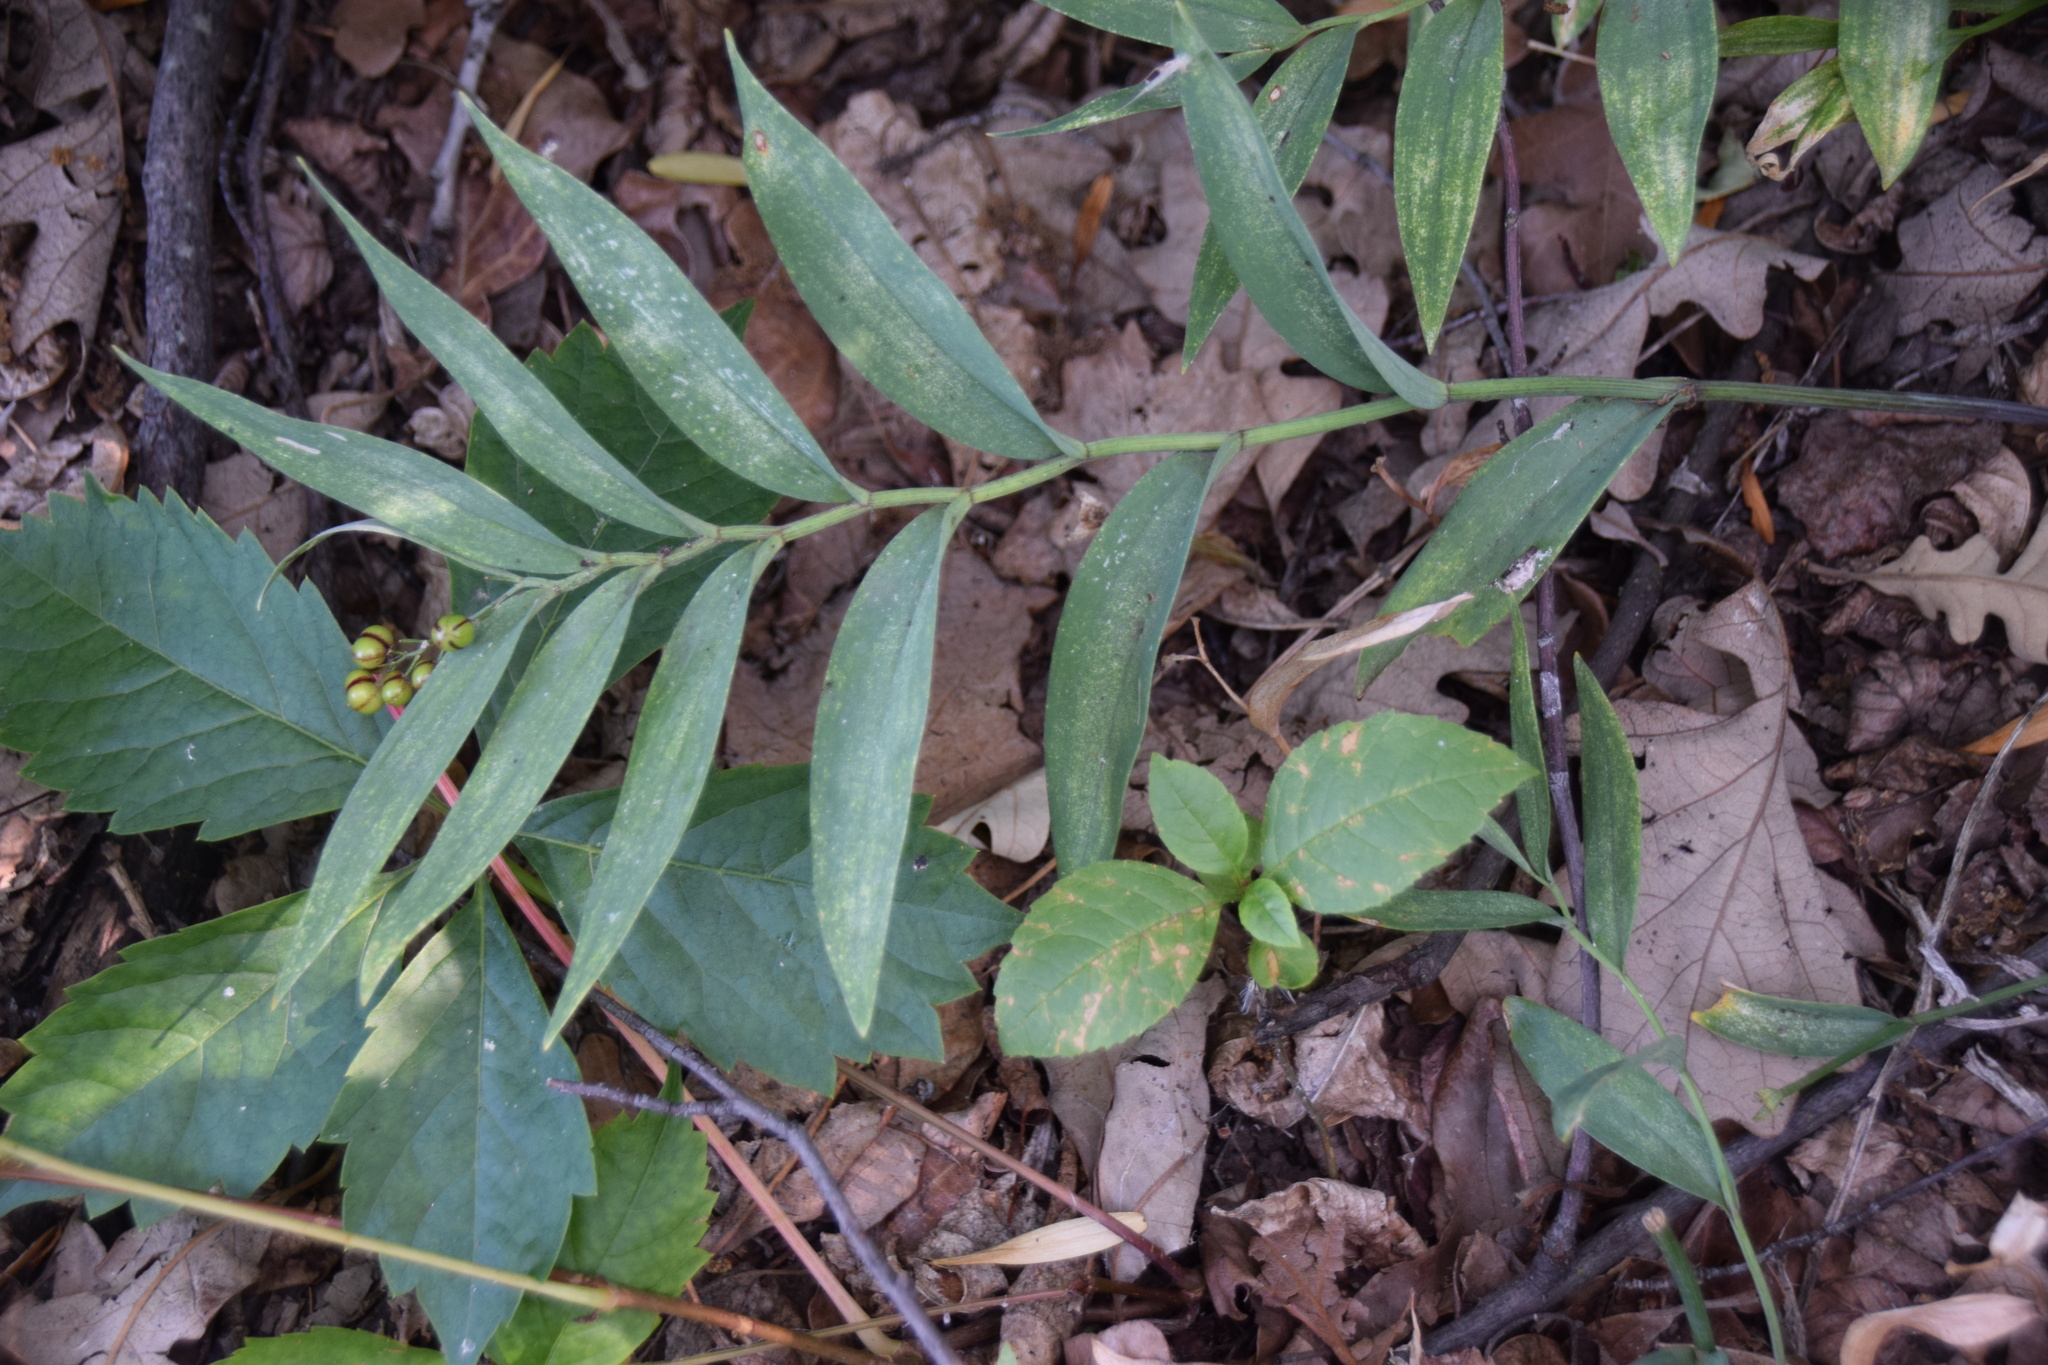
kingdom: Plantae
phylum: Tracheophyta
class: Liliopsida
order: Asparagales
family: Asparagaceae
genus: Maianthemum
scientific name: Maianthemum stellatum
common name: Little false solomon's seal
